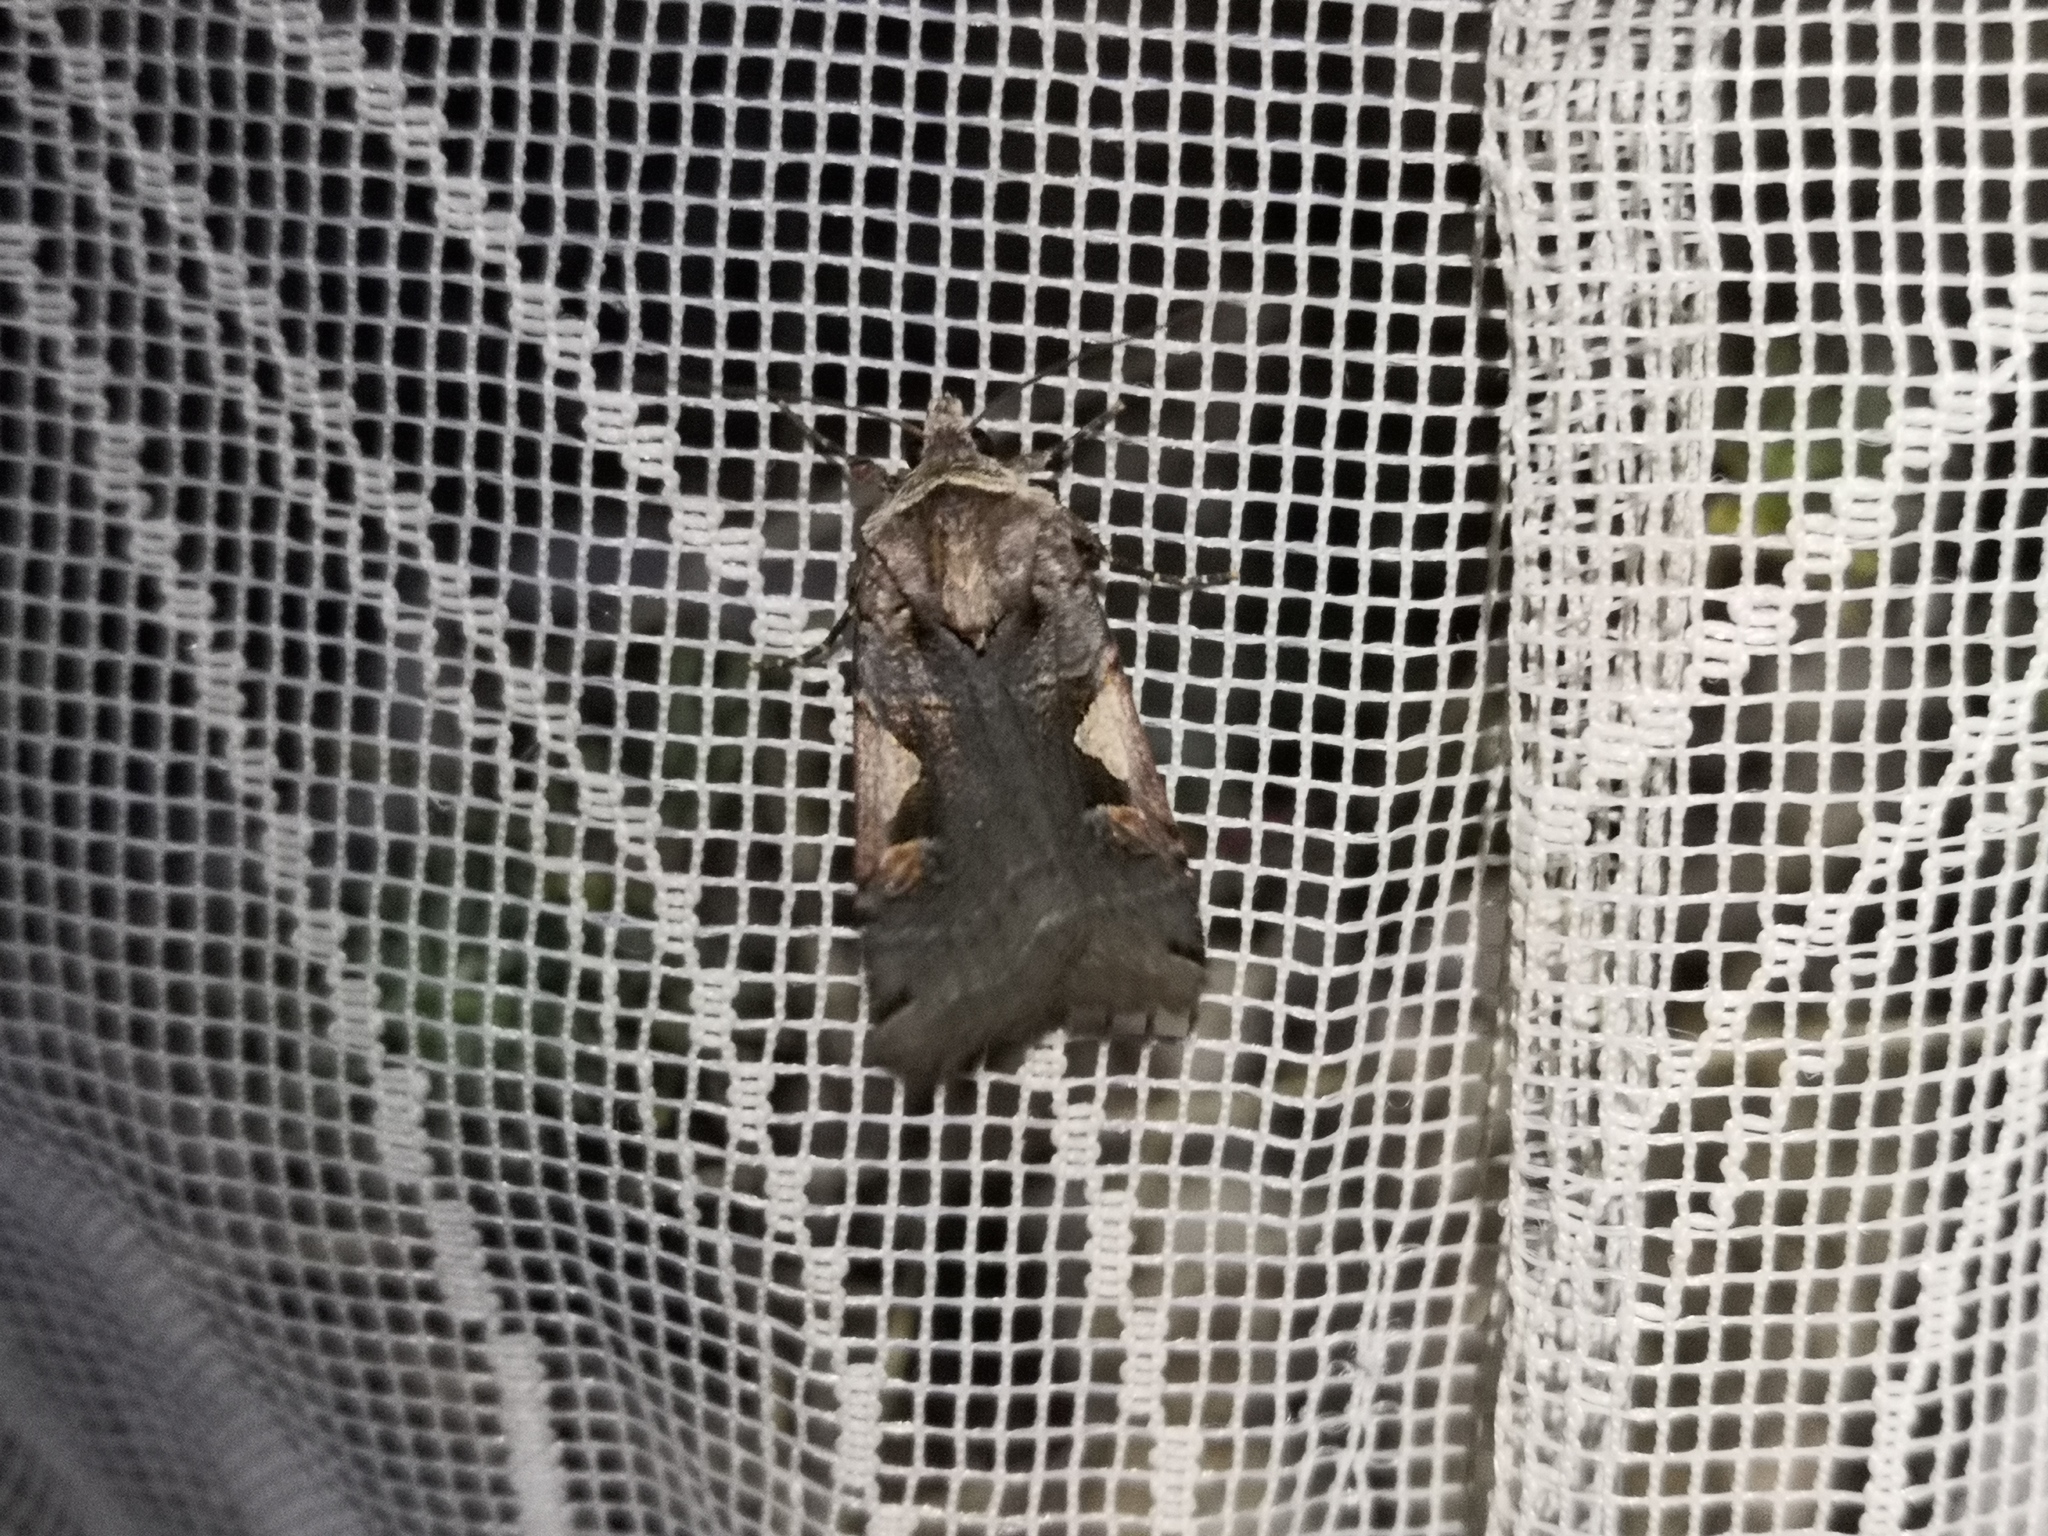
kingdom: Animalia
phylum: Arthropoda
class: Insecta
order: Lepidoptera
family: Noctuidae
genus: Xestia
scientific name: Xestia c-nigrum
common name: Setaceous hebrew character
